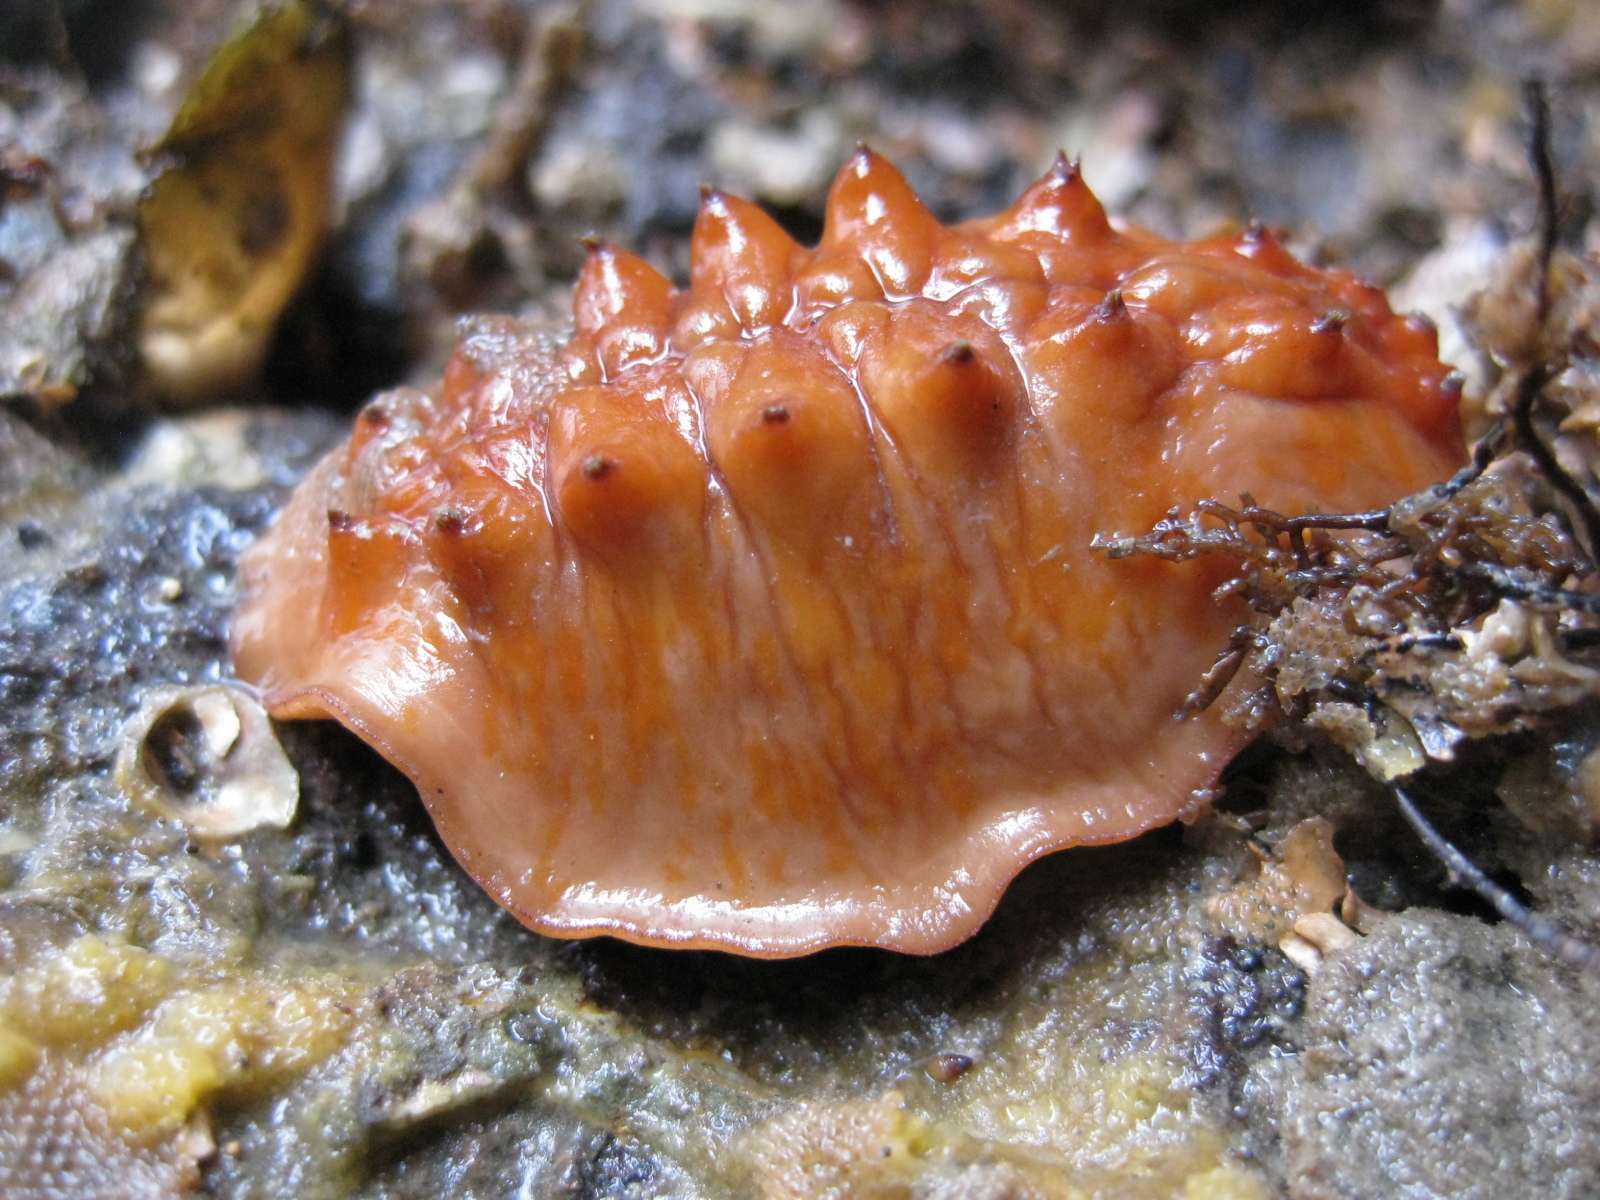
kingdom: Animalia
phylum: Mollusca
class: Polyplacophora
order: Chitonida
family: Acanthochitonidae
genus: Cryptoconchus
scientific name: Cryptoconchus porosus
